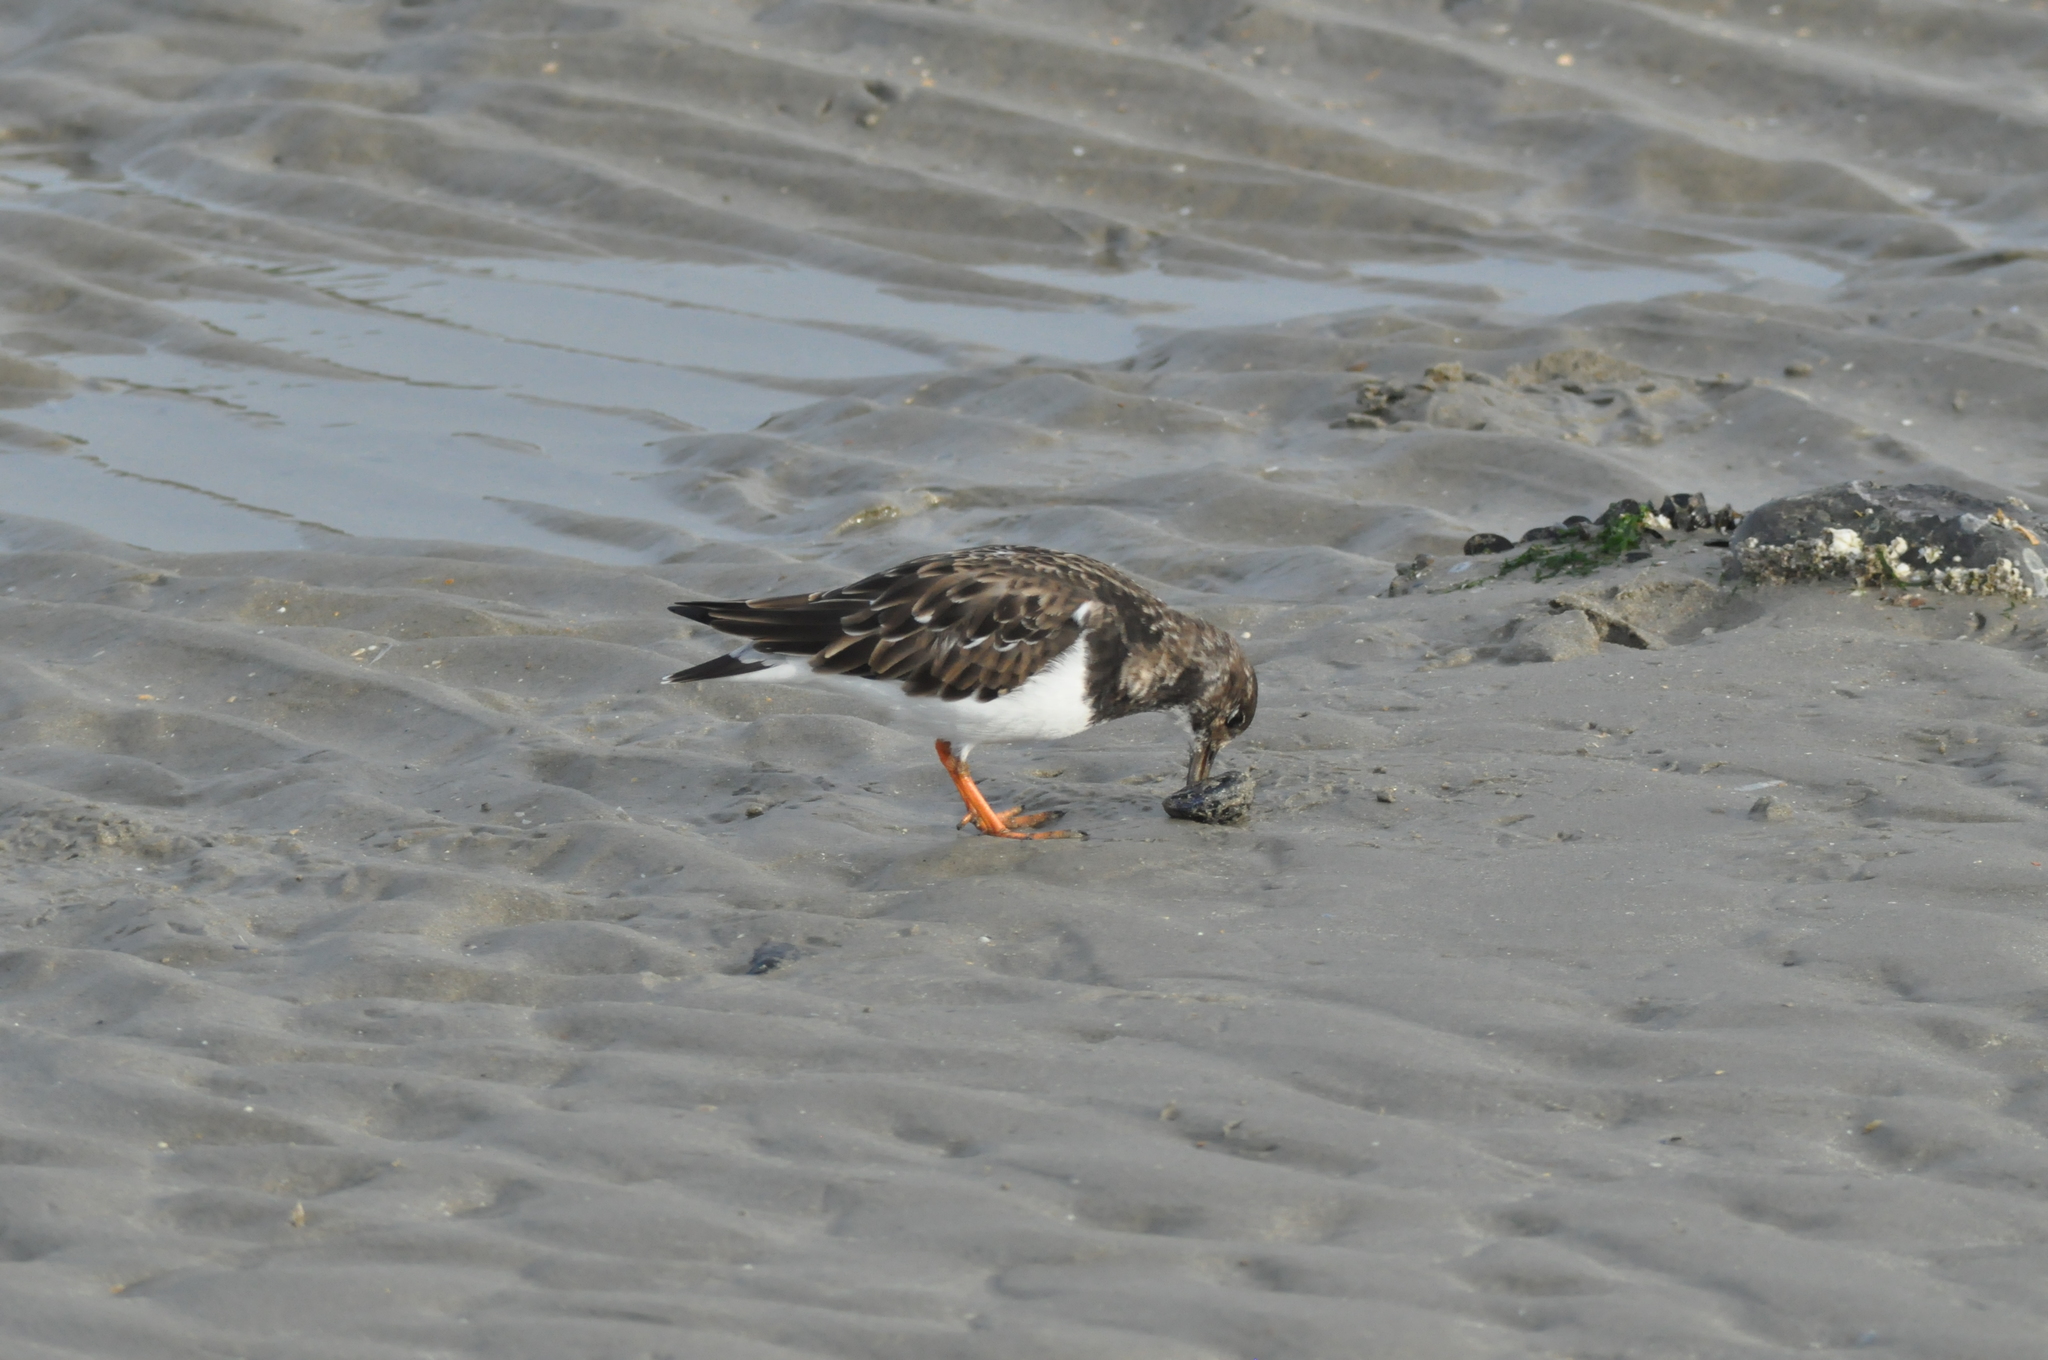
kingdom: Animalia
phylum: Chordata
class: Aves
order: Charadriiformes
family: Scolopacidae
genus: Arenaria
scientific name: Arenaria interpres
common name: Ruddy turnstone
